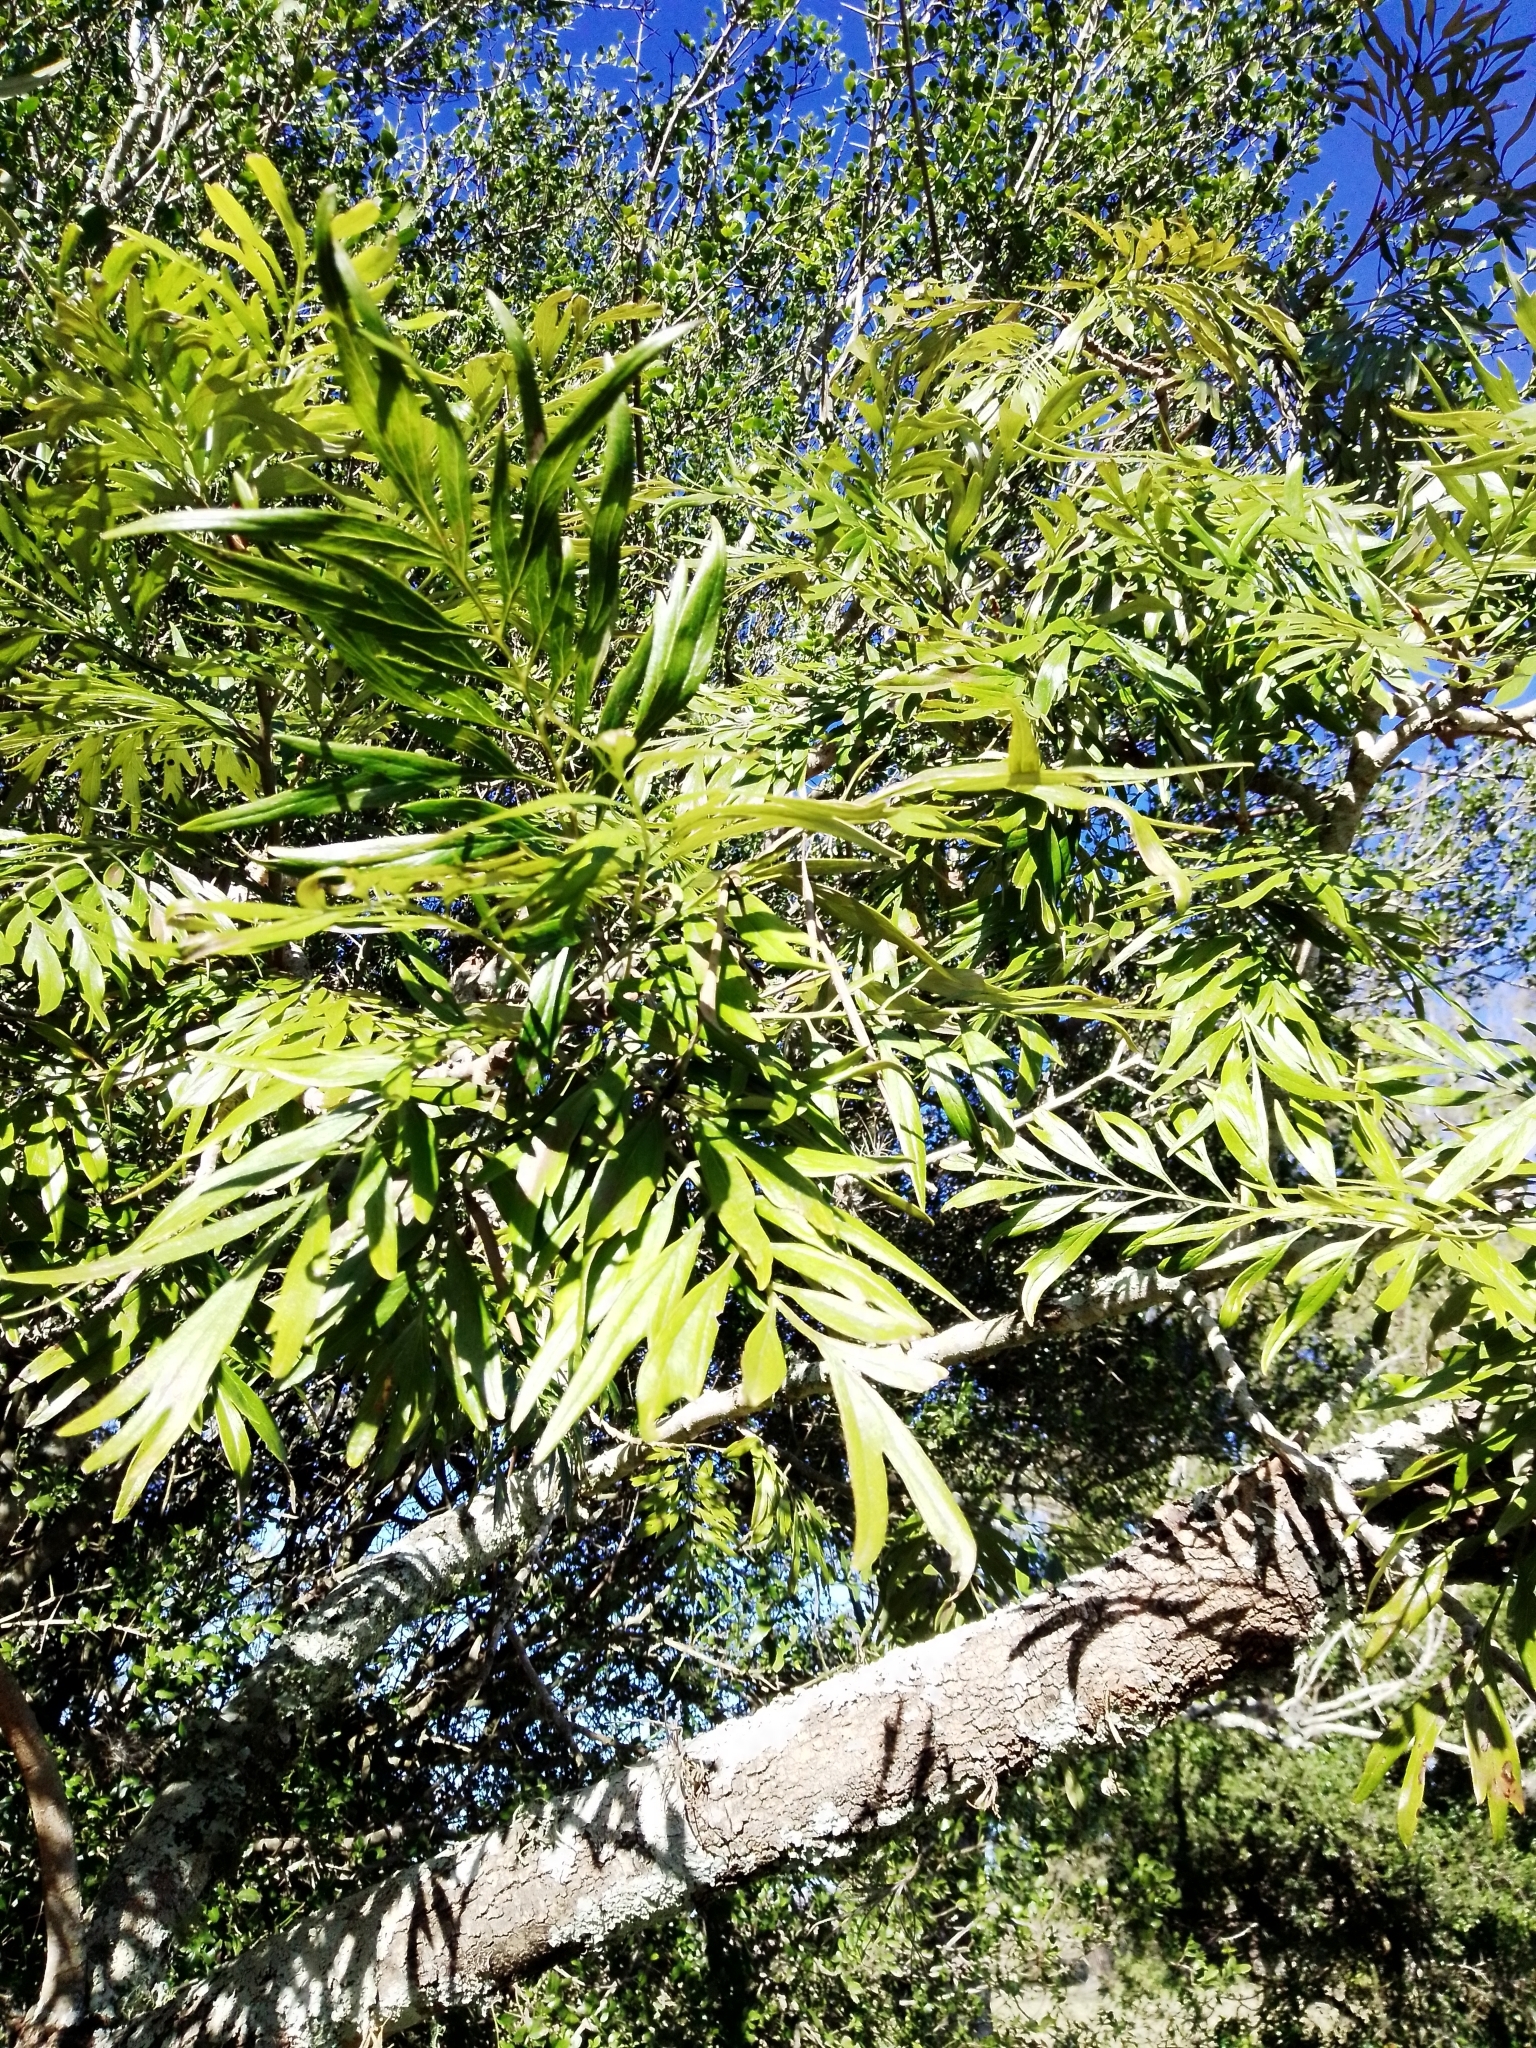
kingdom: Plantae
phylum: Tracheophyta
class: Magnoliopsida
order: Proteales
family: Proteaceae
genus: Grevillea
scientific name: Grevillea robusta
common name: Silkoak
